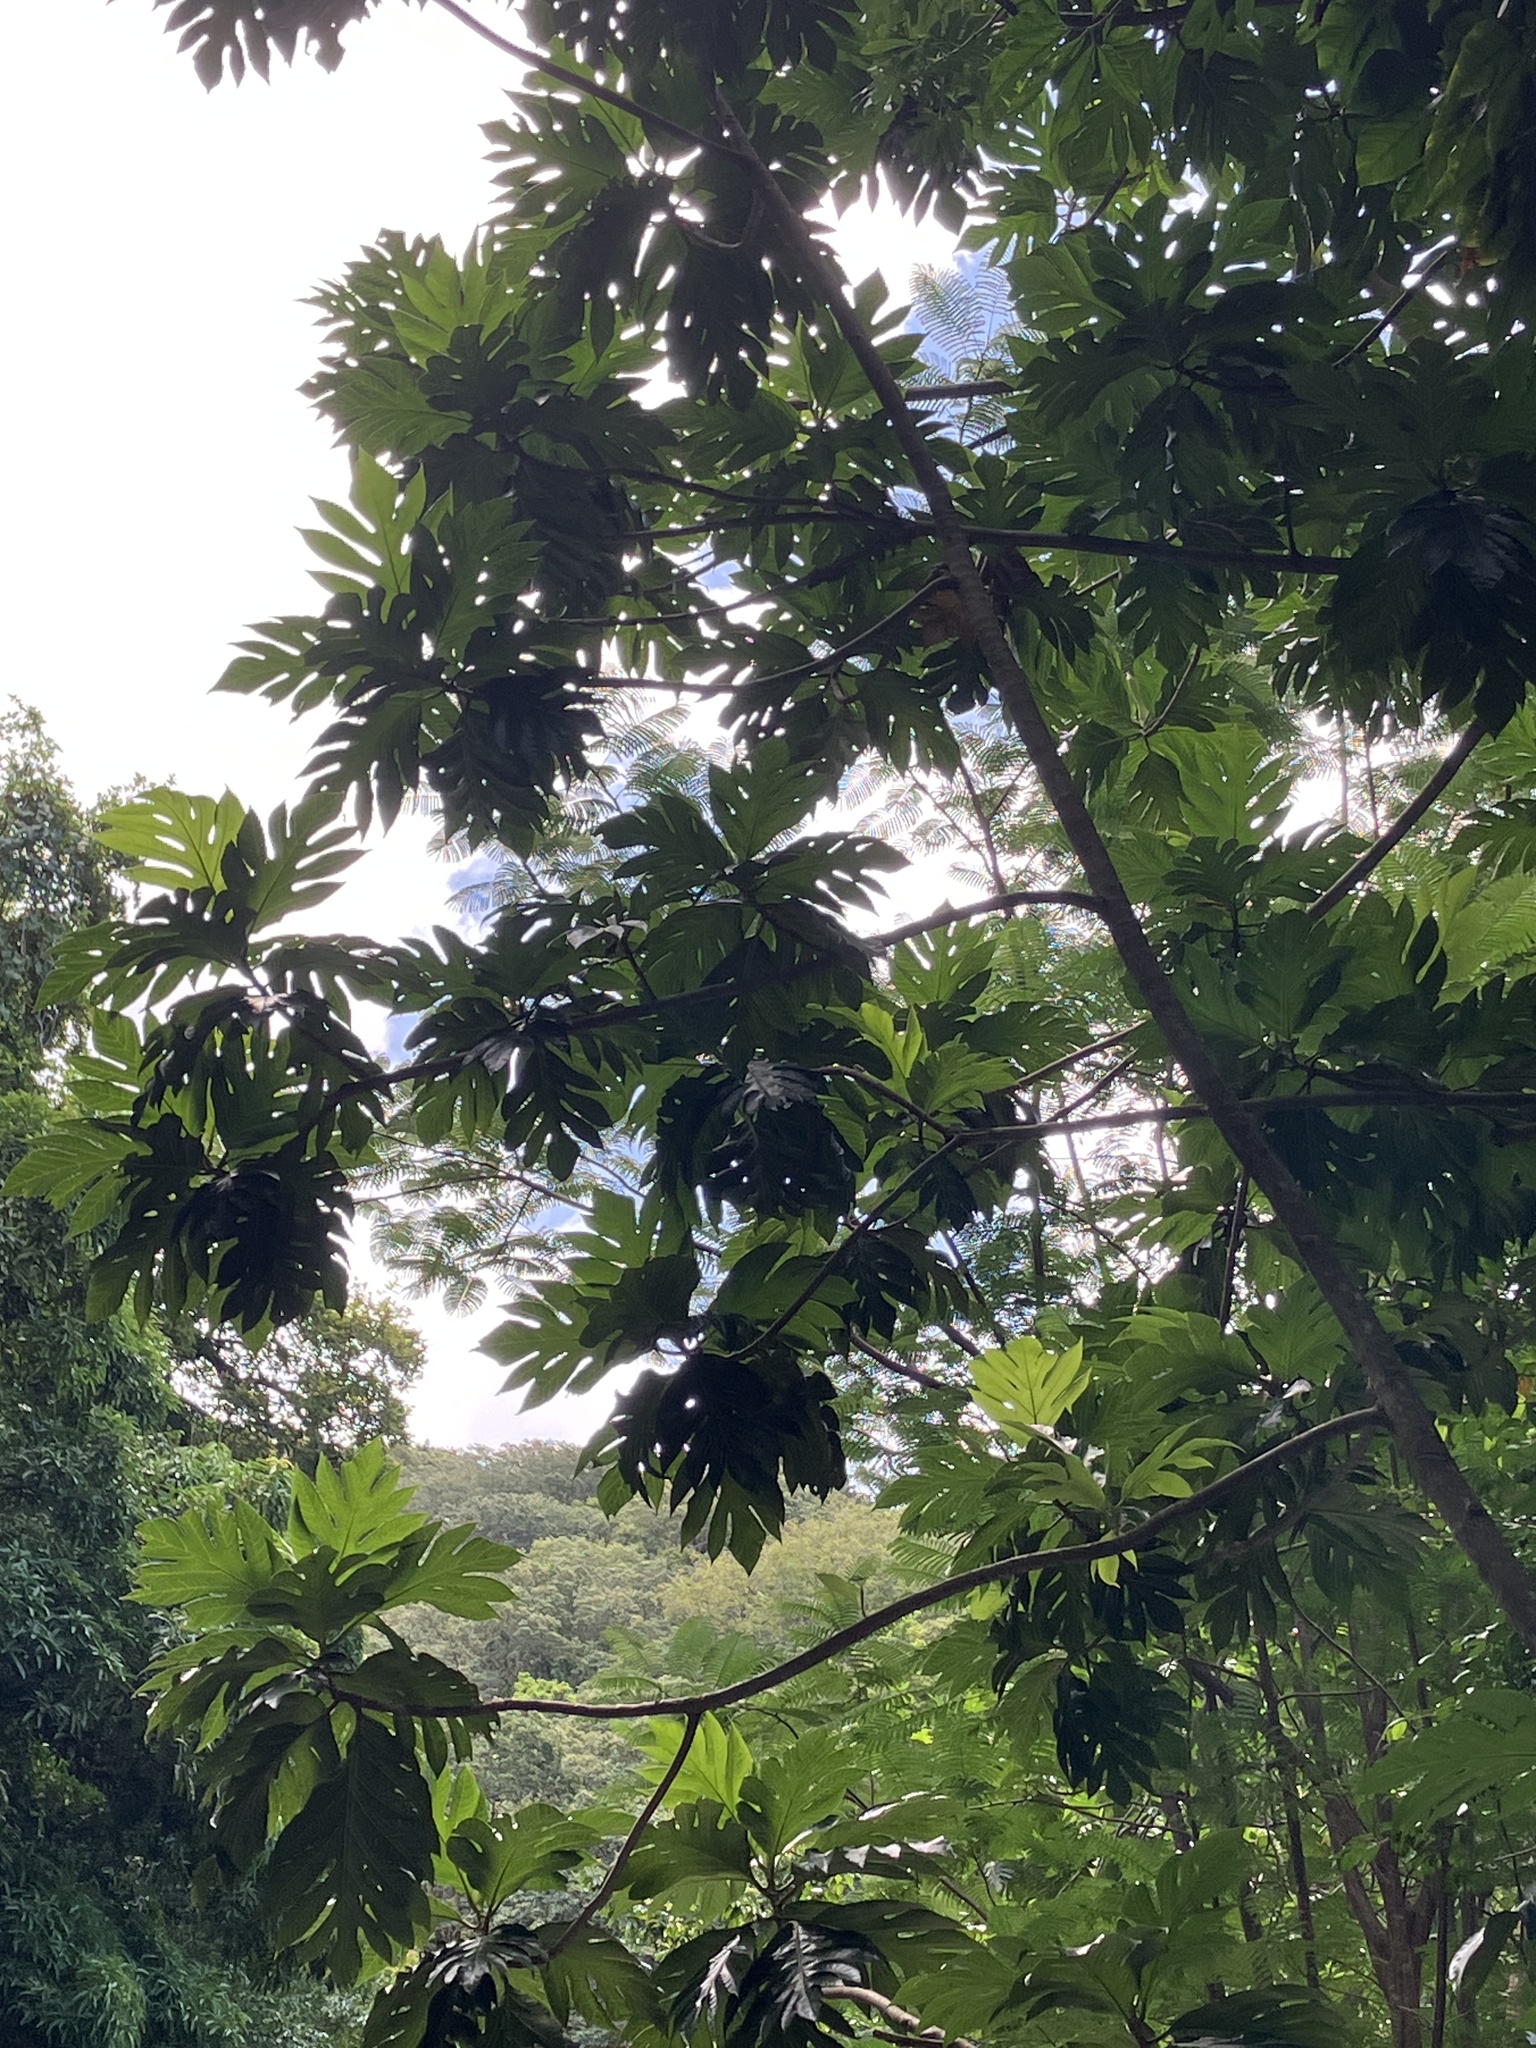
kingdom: Plantae
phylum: Tracheophyta
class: Magnoliopsida
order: Rosales
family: Moraceae
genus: Artocarpus
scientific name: Artocarpus altilis
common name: Breadfruit
